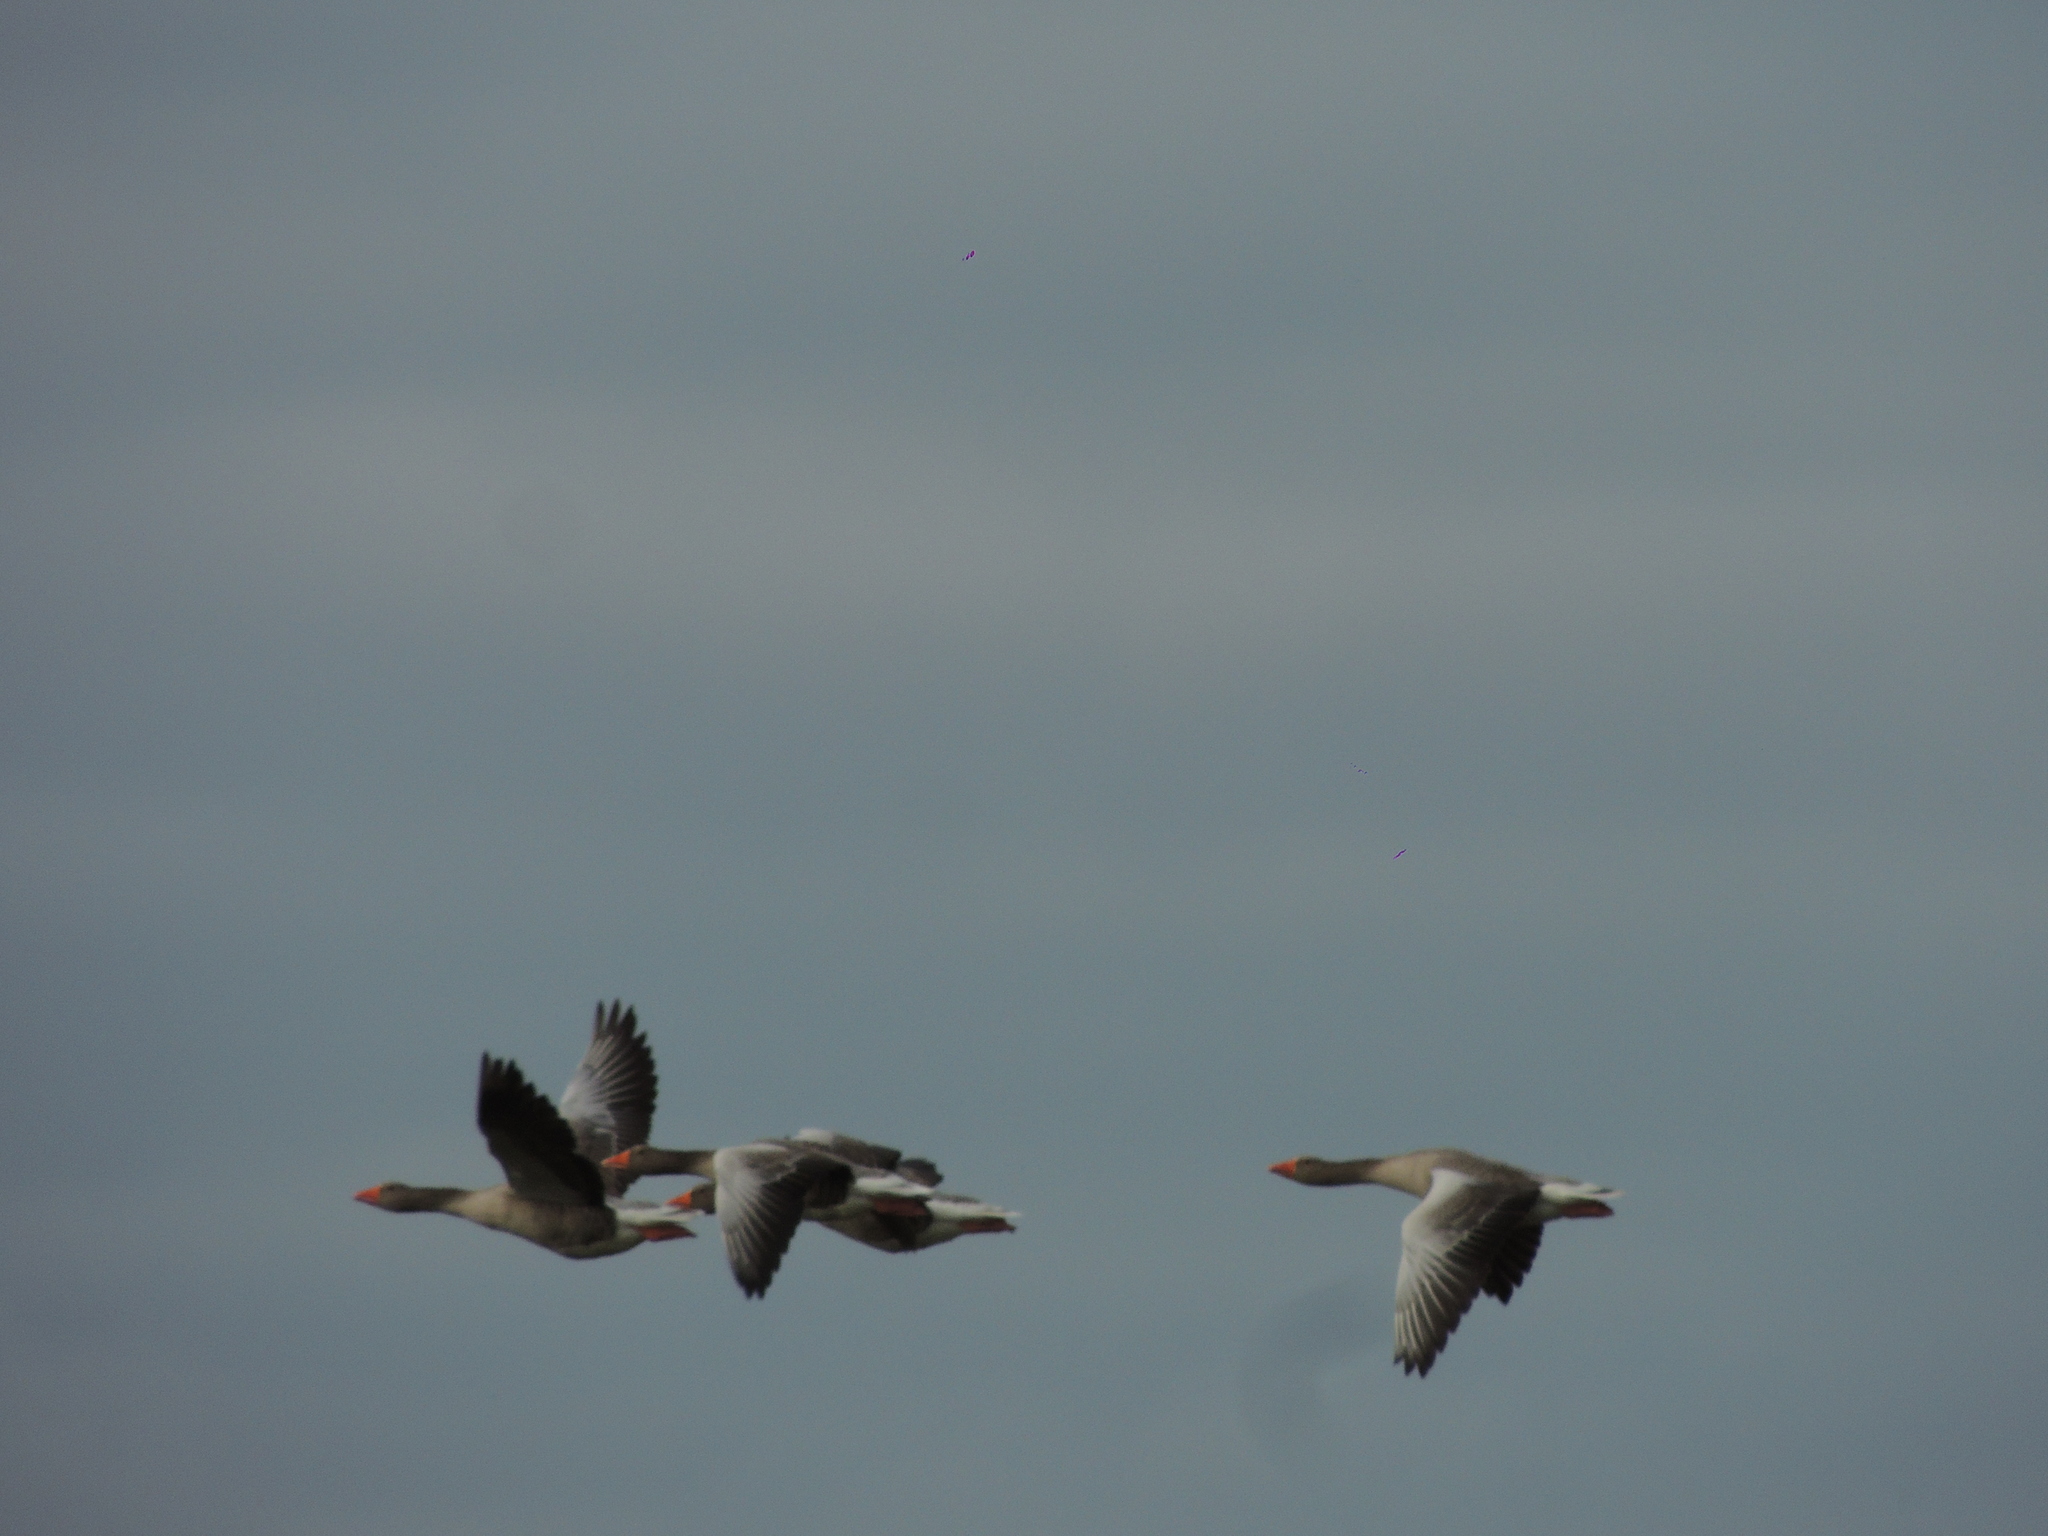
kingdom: Animalia
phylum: Chordata
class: Aves
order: Anseriformes
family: Anatidae
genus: Anser
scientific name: Anser anser
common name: Greylag goose
